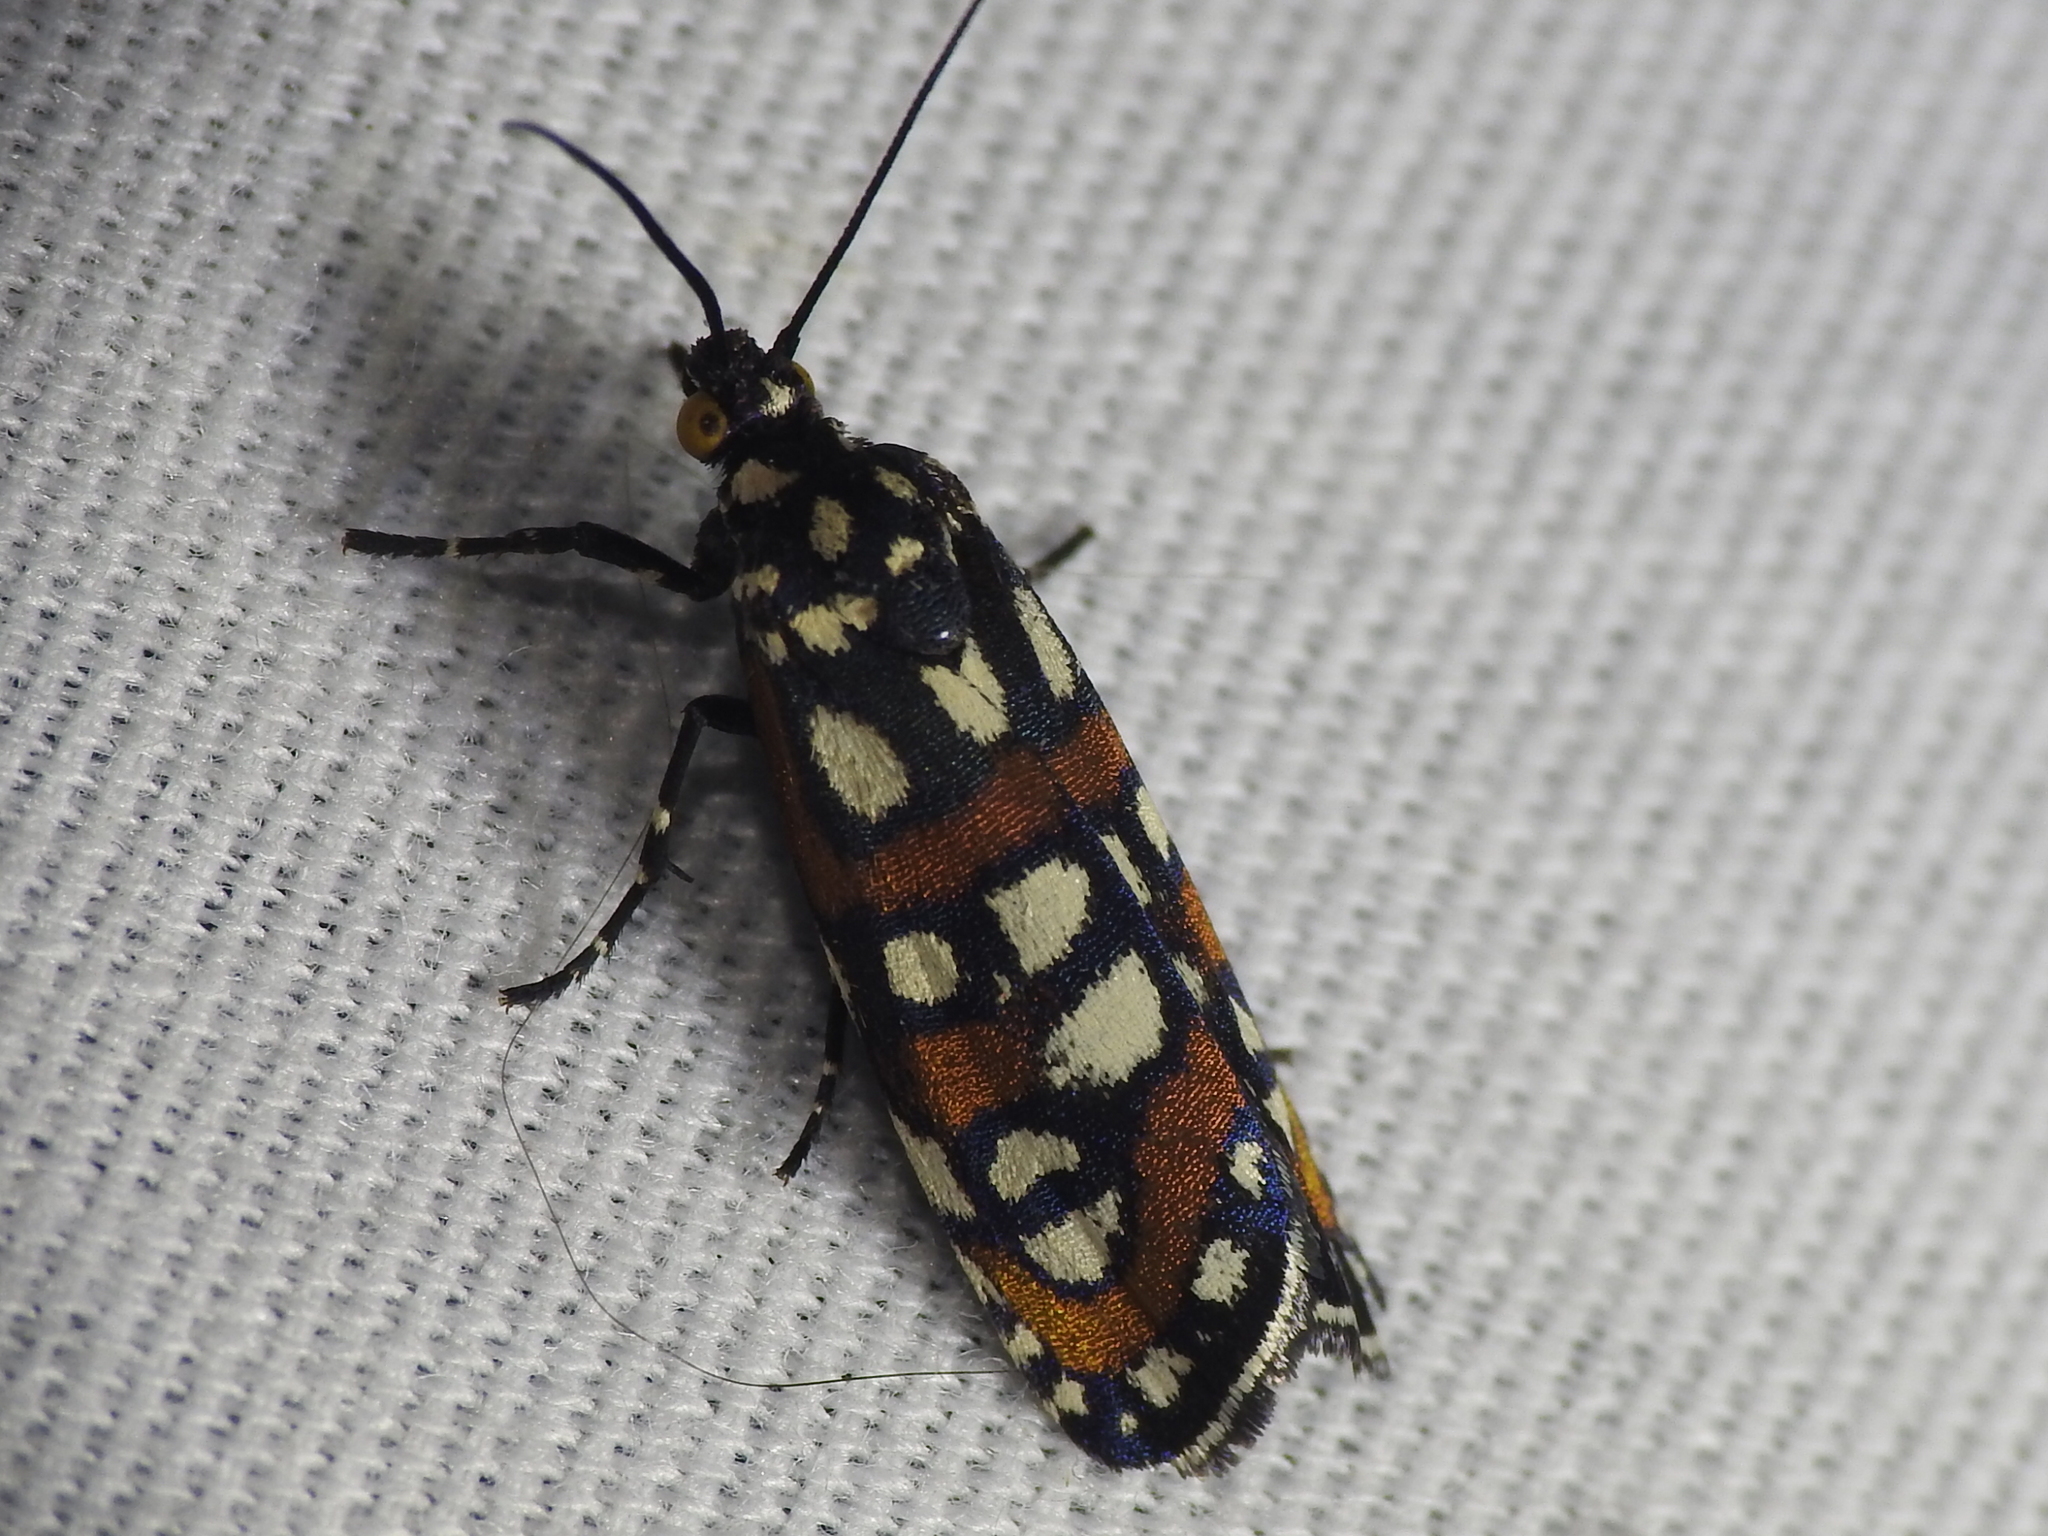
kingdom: Animalia
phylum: Arthropoda
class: Insecta
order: Lepidoptera
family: Noctuidae
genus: Cydosia
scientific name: Cydosia aurivitta
